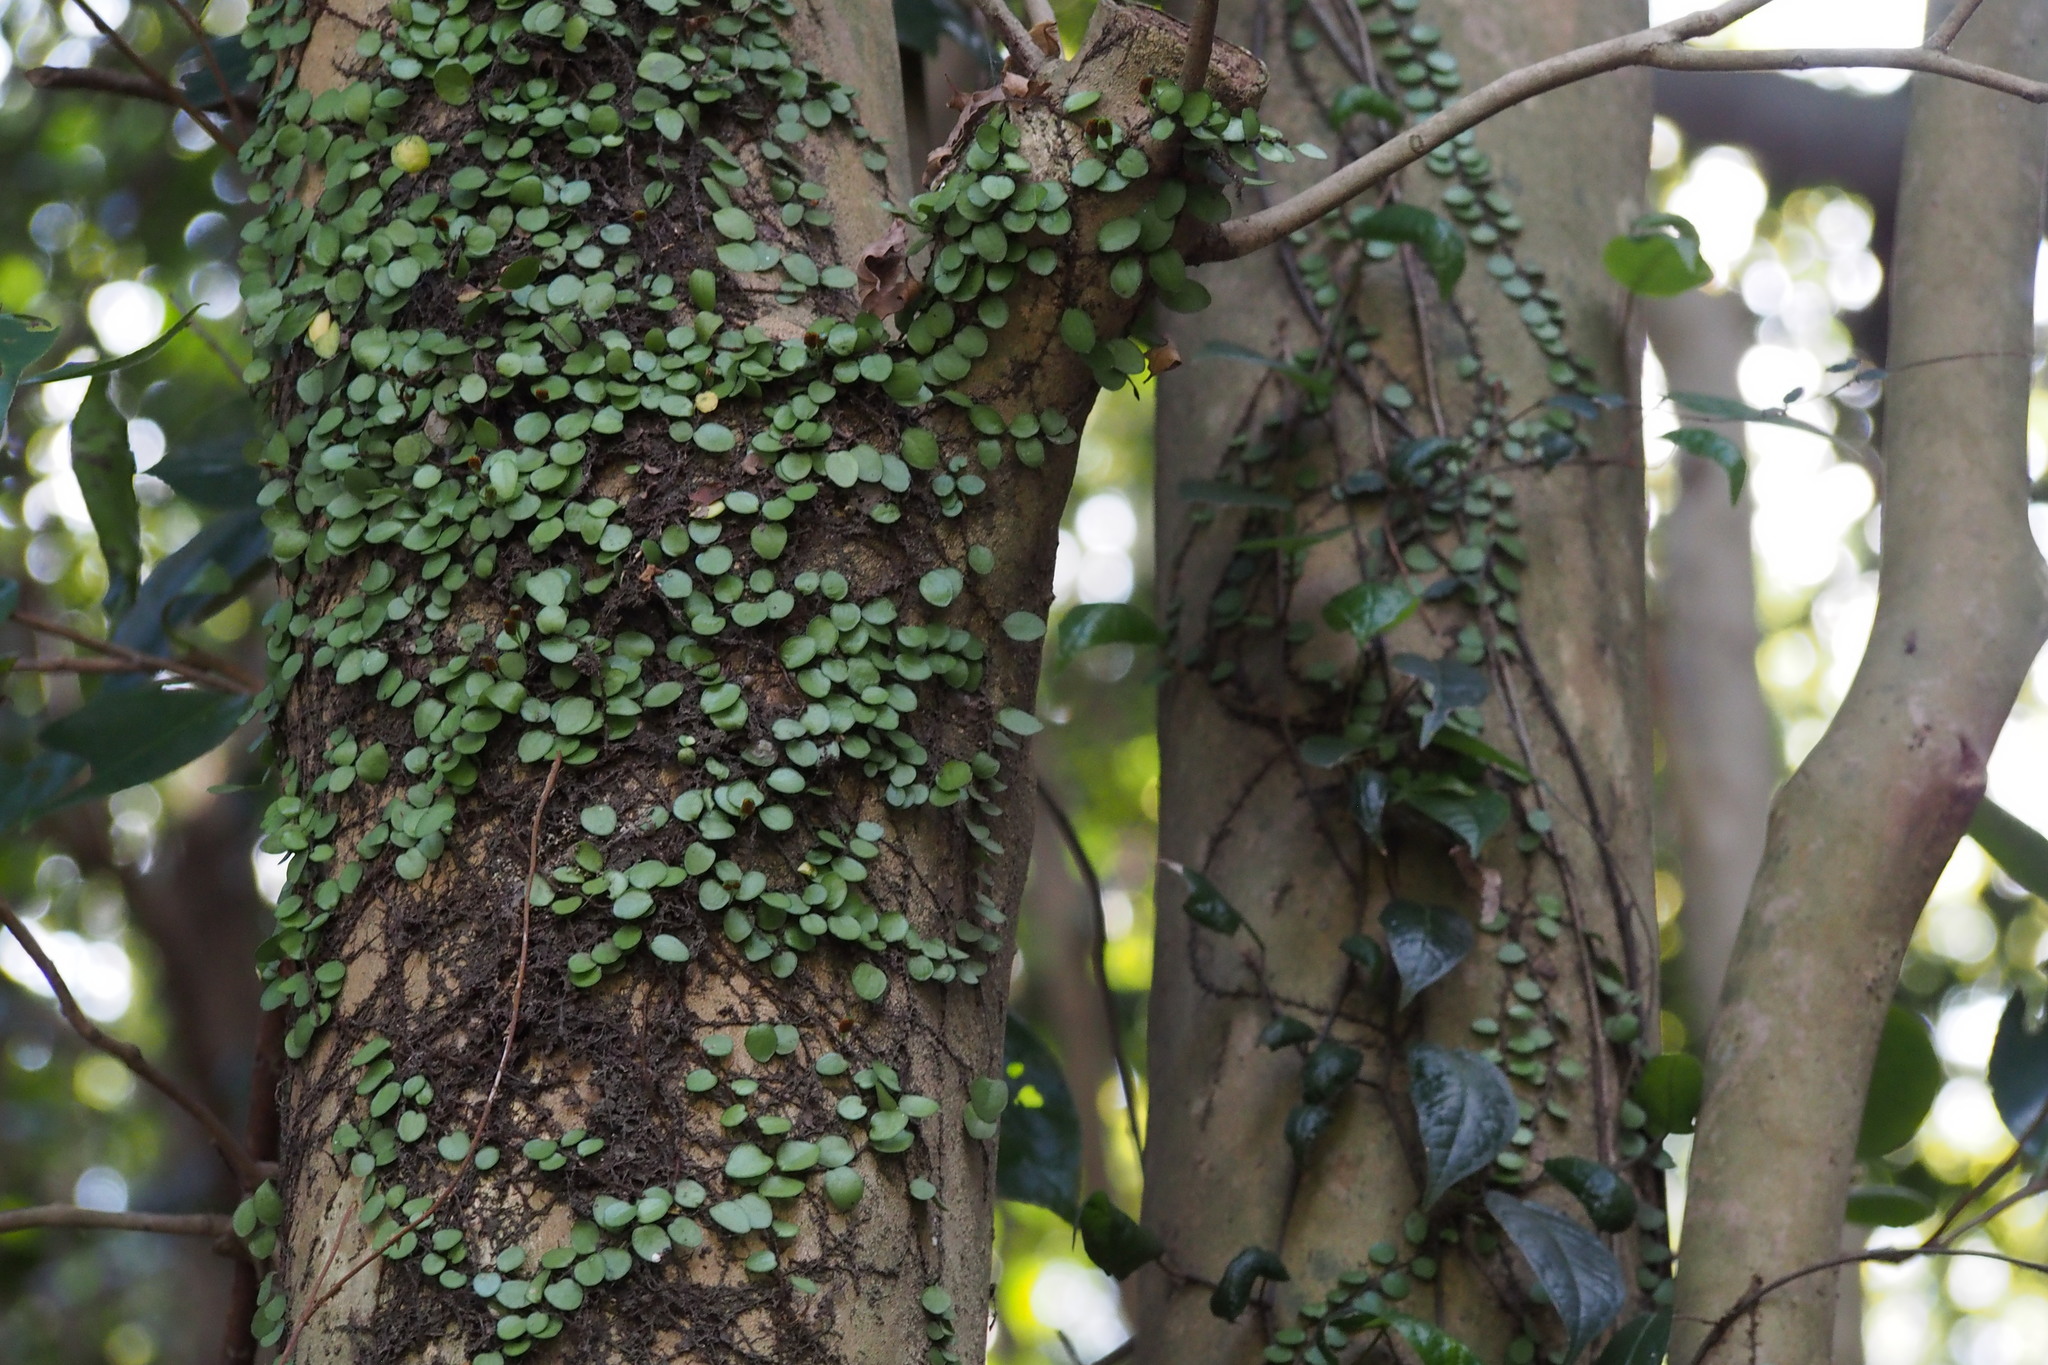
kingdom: Plantae
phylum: Tracheophyta
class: Polypodiopsida
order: Polypodiales
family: Polypodiaceae
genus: Lepisorus
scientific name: Lepisorus microphyllus
